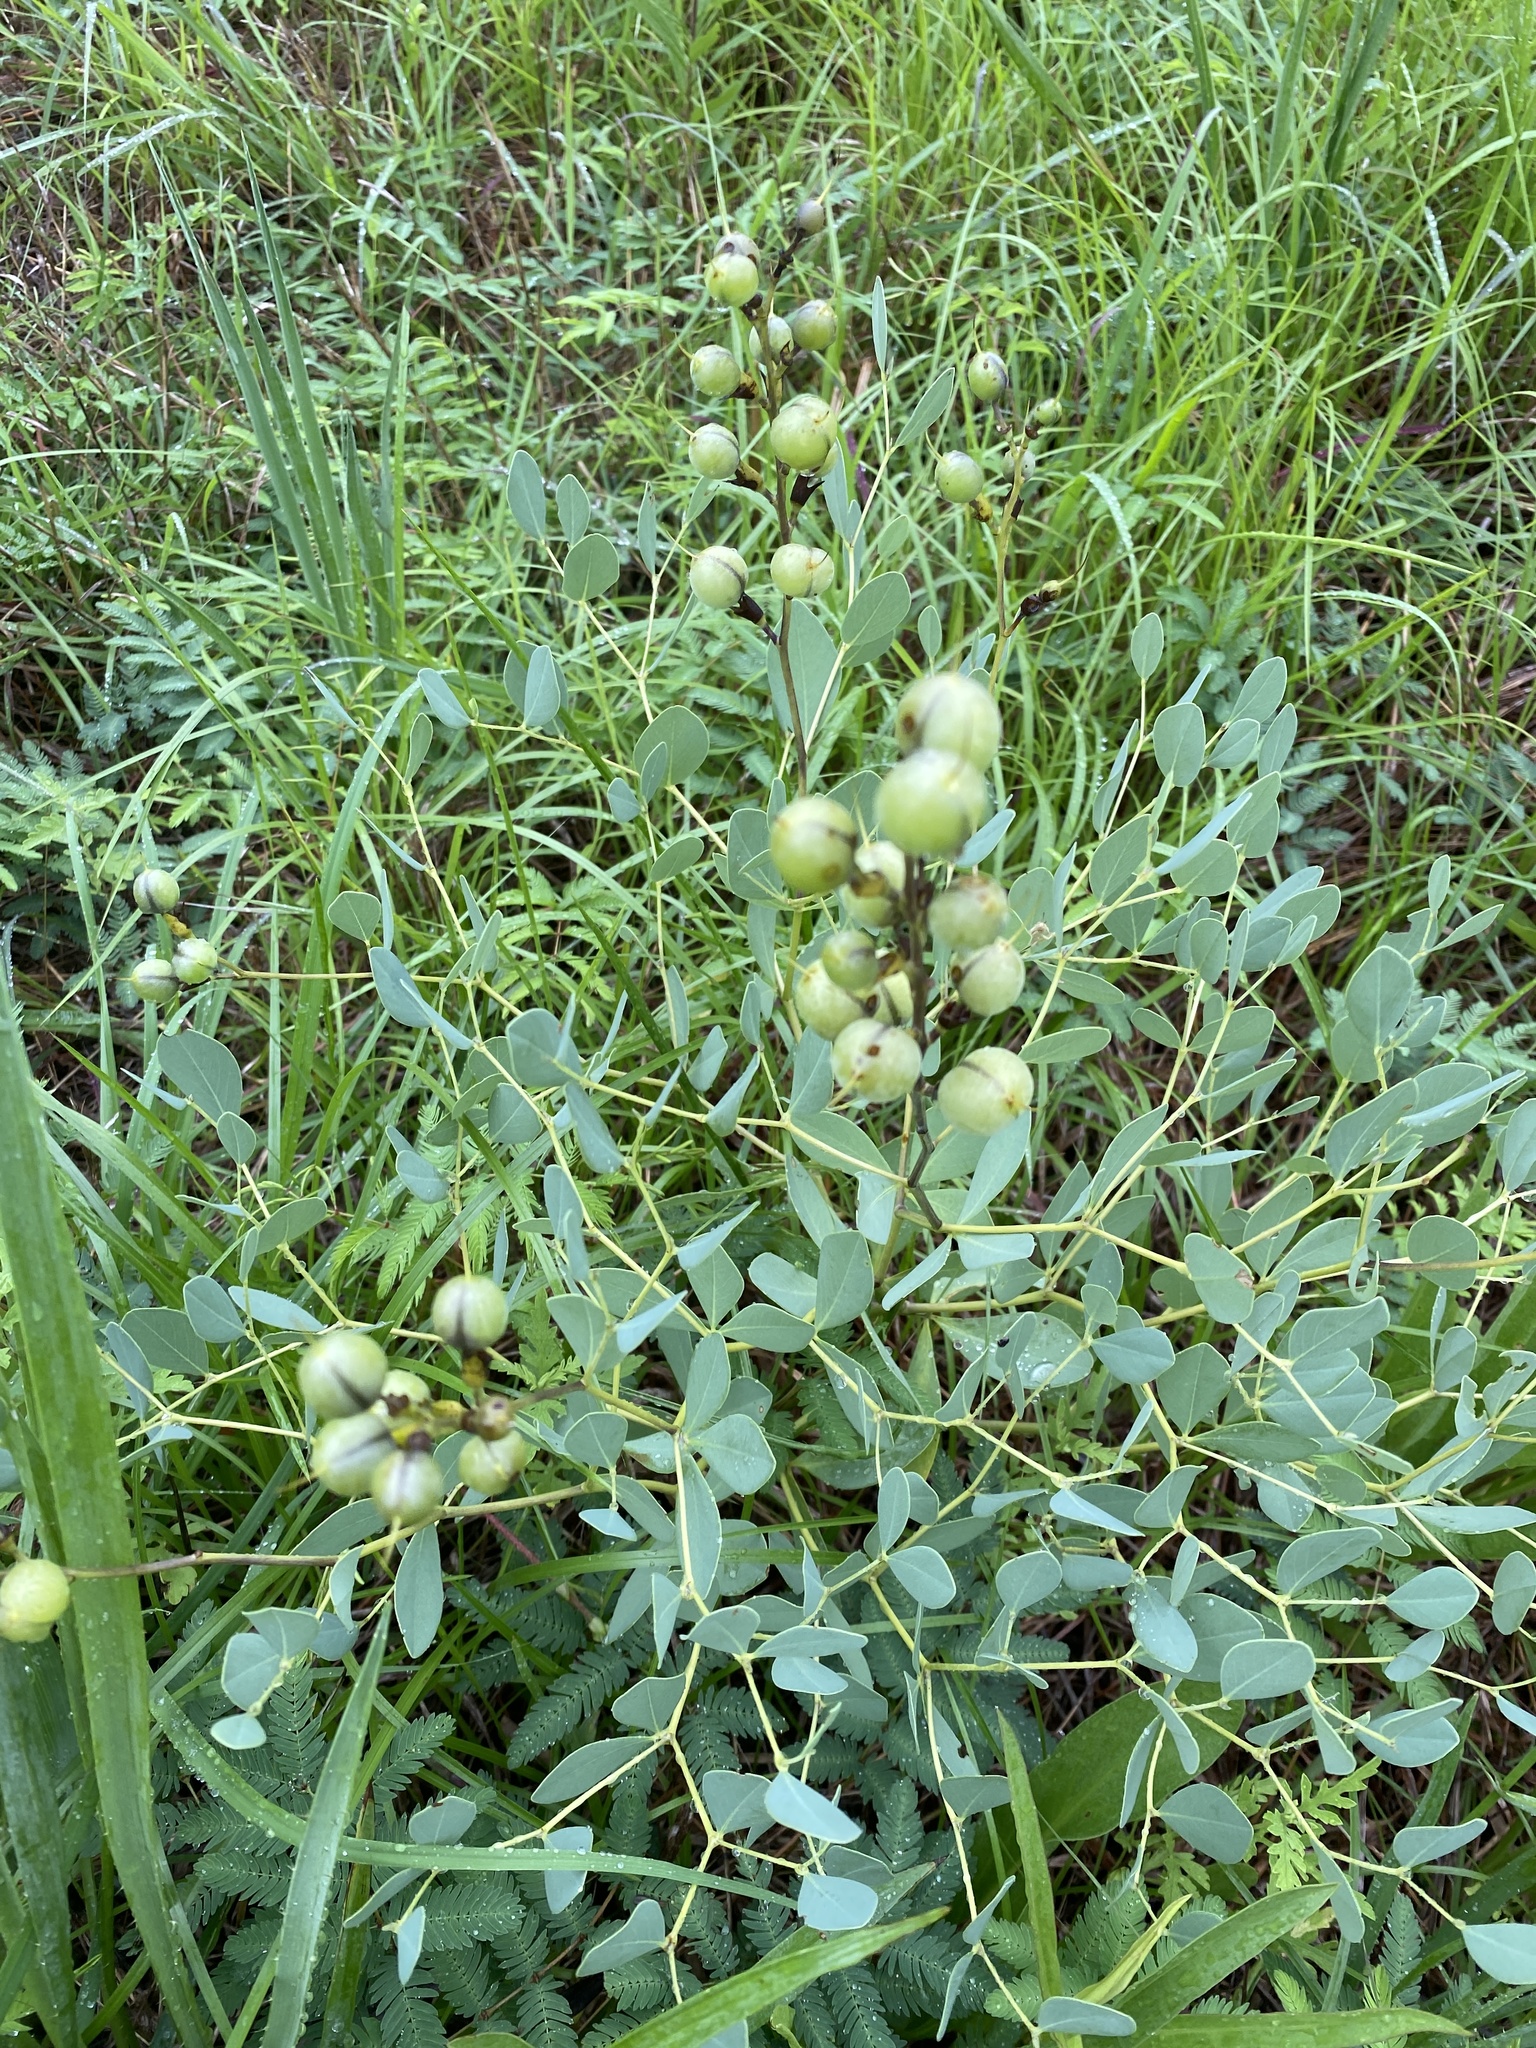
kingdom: Plantae
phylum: Tracheophyta
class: Magnoliopsida
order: Fabales
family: Fabaceae
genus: Baptisia
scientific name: Baptisia sphaerocarpa
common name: Round wild indigo
